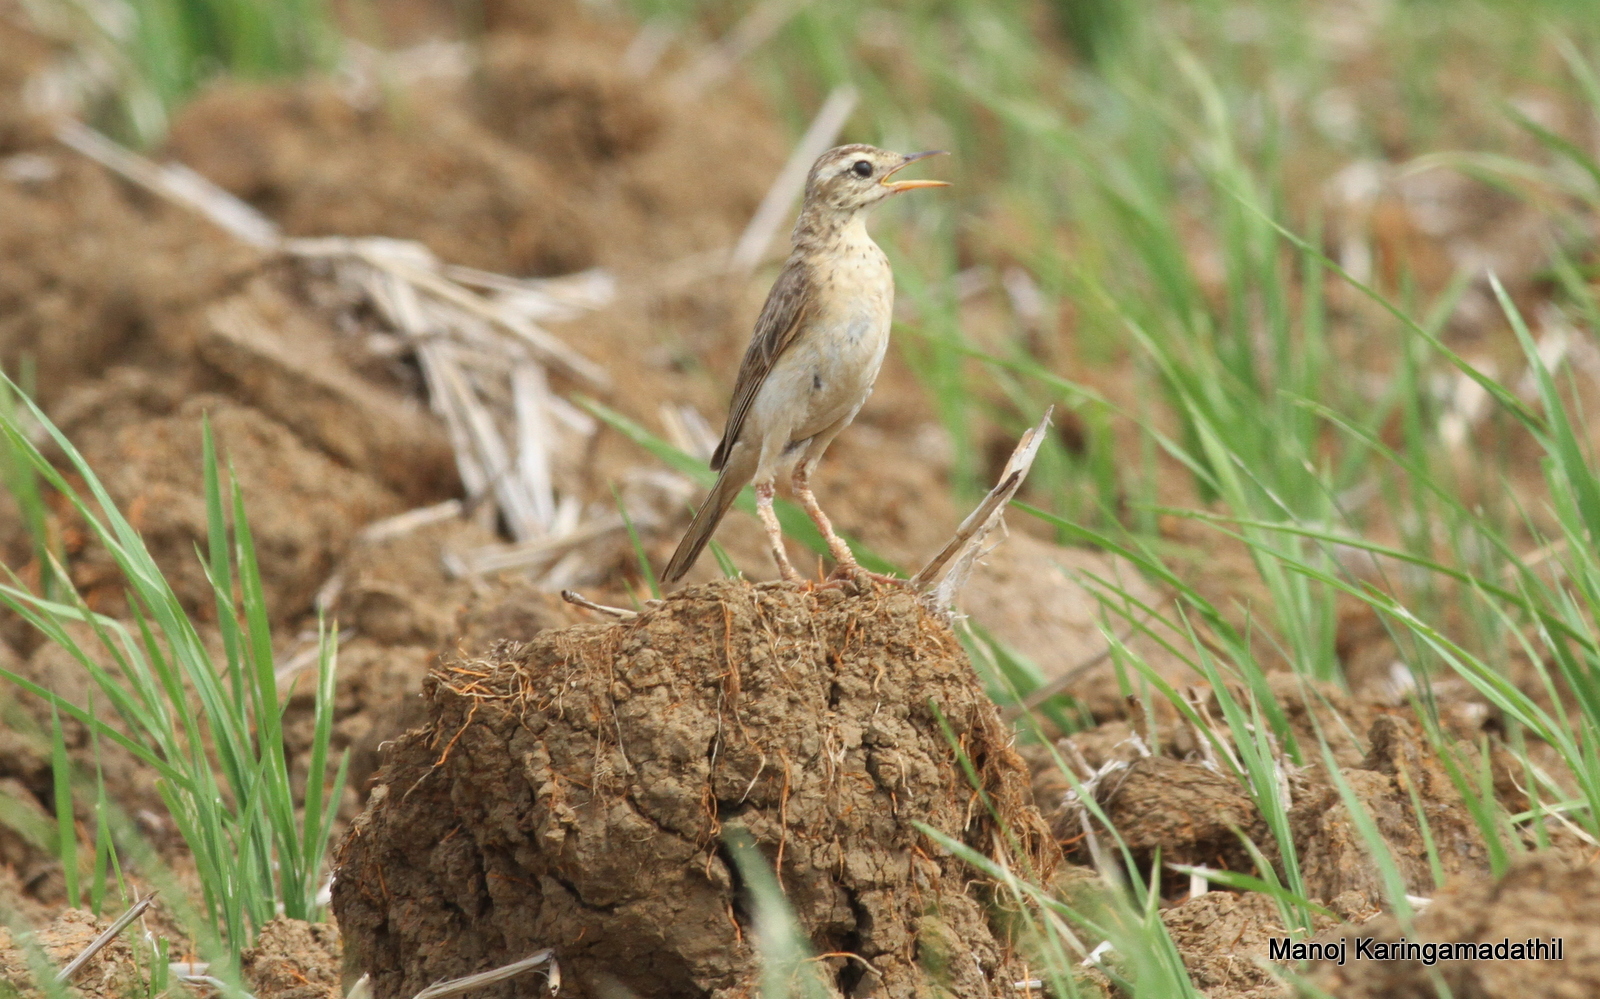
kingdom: Animalia
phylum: Chordata
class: Aves
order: Passeriformes
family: Motacillidae
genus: Anthus
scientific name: Anthus rufulus
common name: Paddyfield pipit
